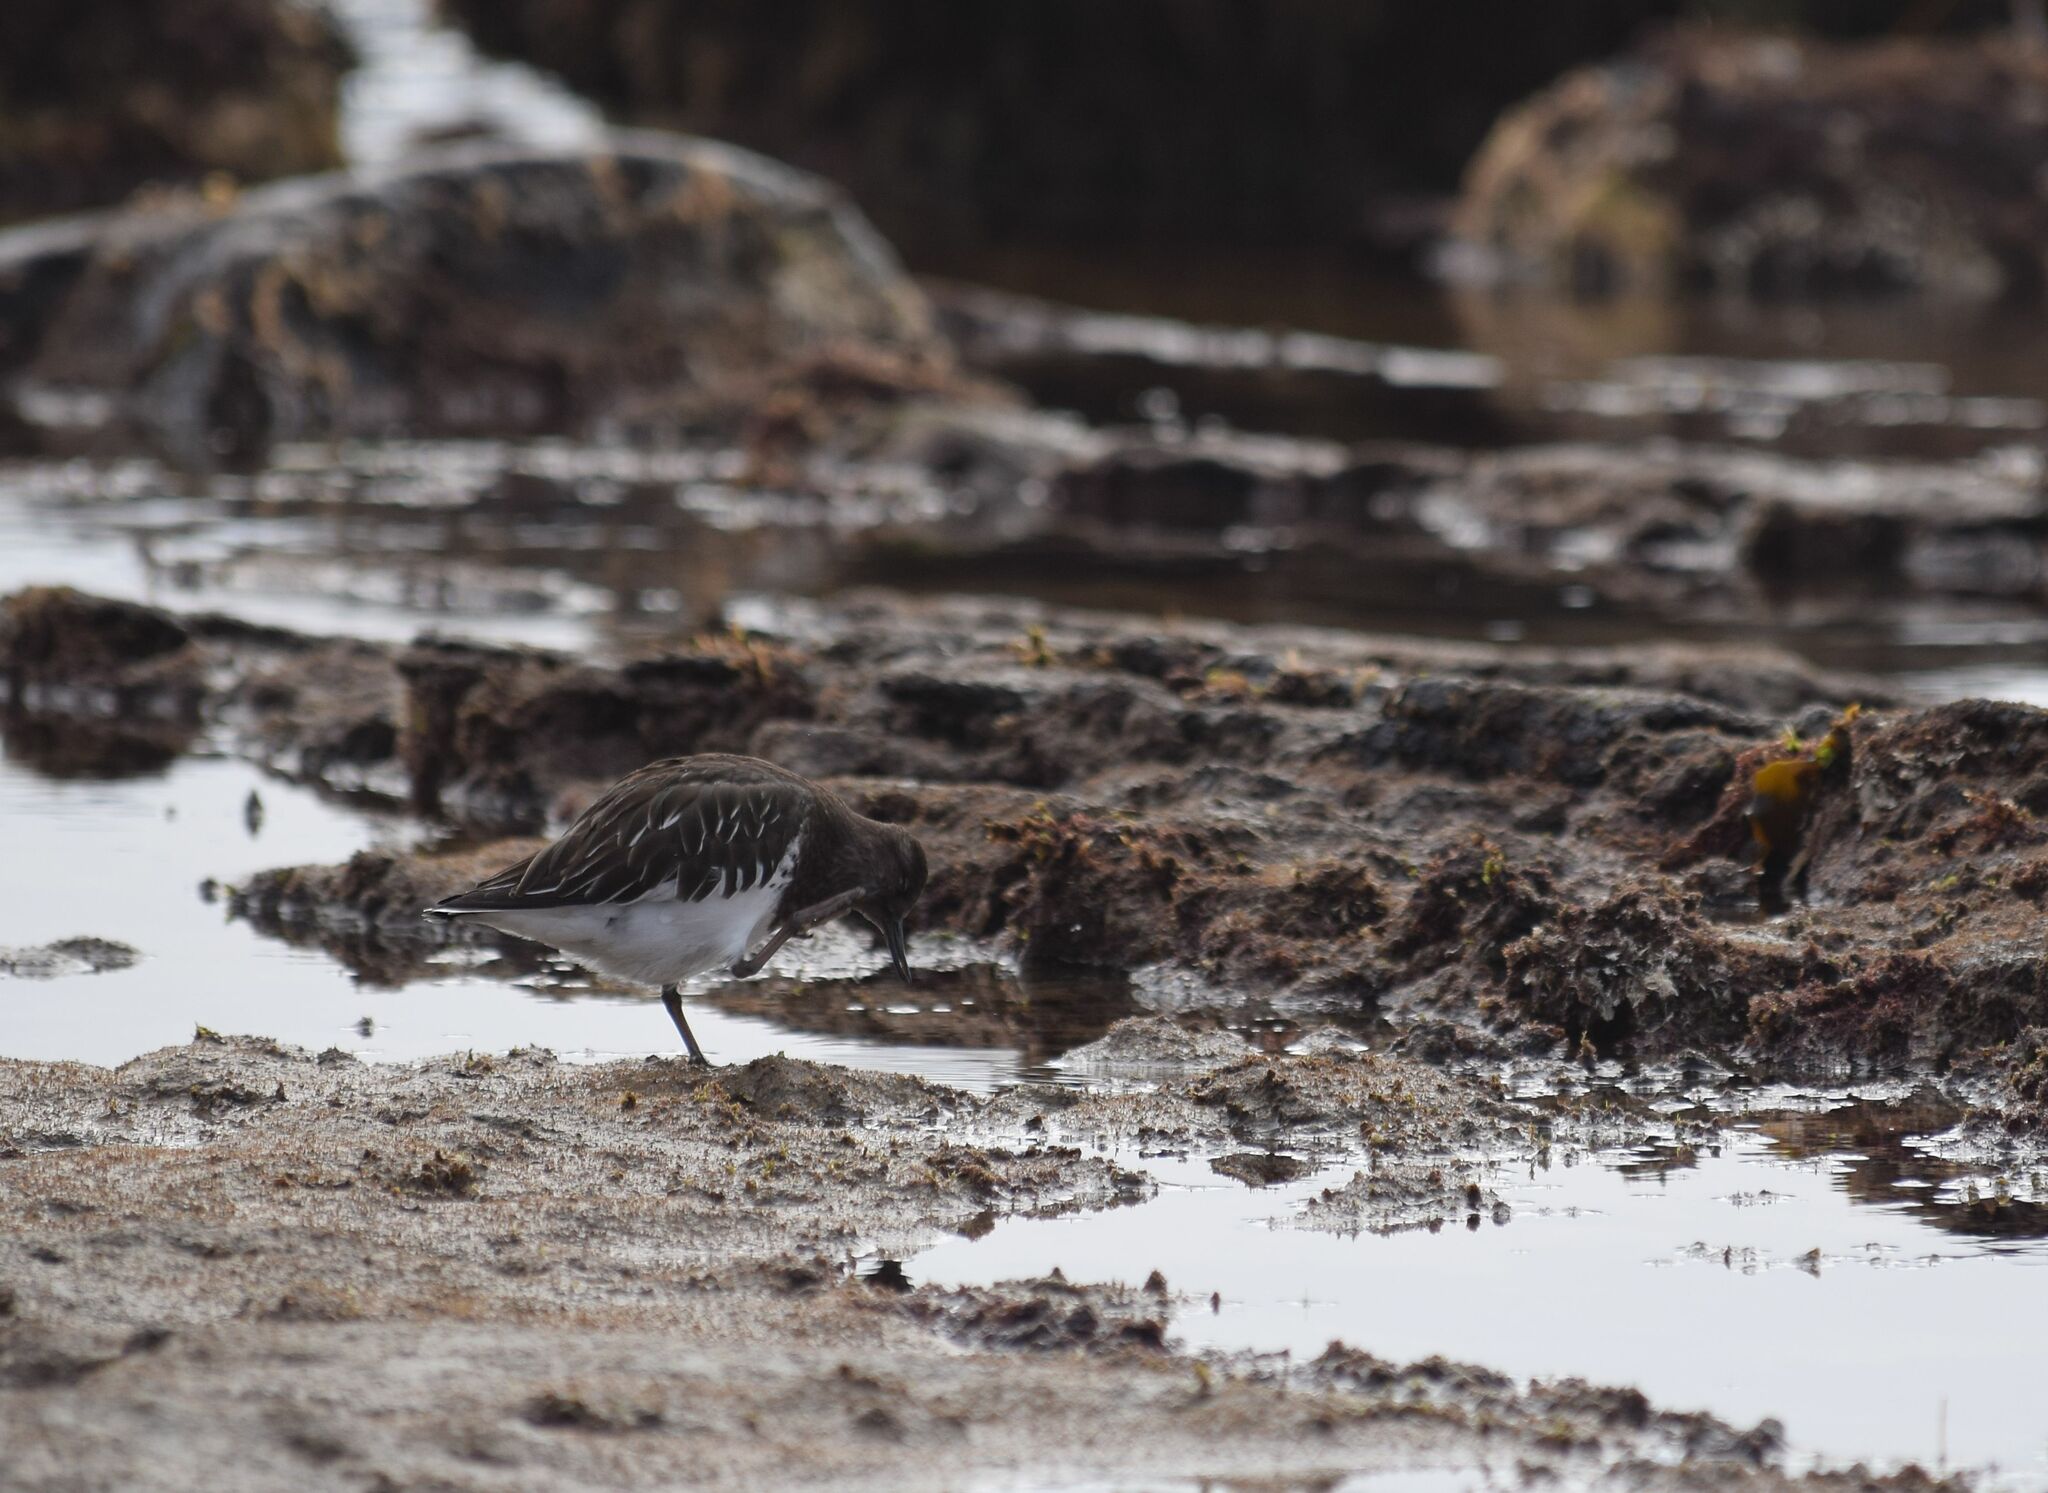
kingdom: Animalia
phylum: Chordata
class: Aves
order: Charadriiformes
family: Scolopacidae
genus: Arenaria
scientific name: Arenaria melanocephala
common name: Black turnstone
